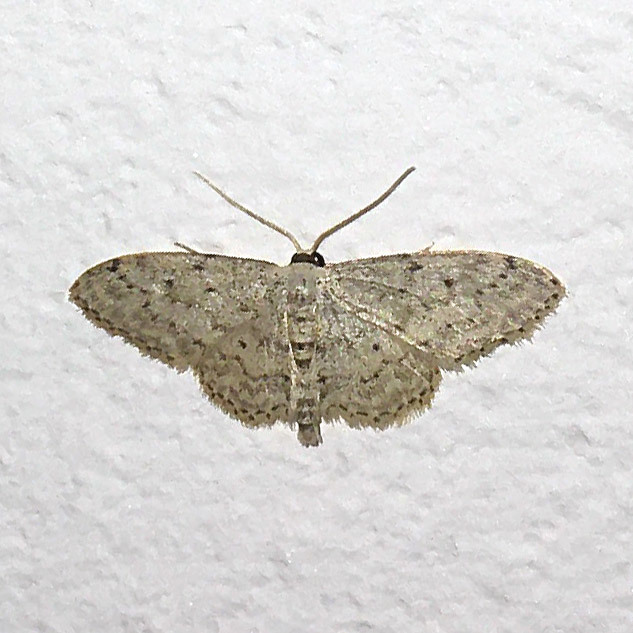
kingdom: Animalia
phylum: Arthropoda
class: Insecta
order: Lepidoptera
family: Geometridae
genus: Idaea
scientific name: Idaea seriata
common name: Small dusty wave
